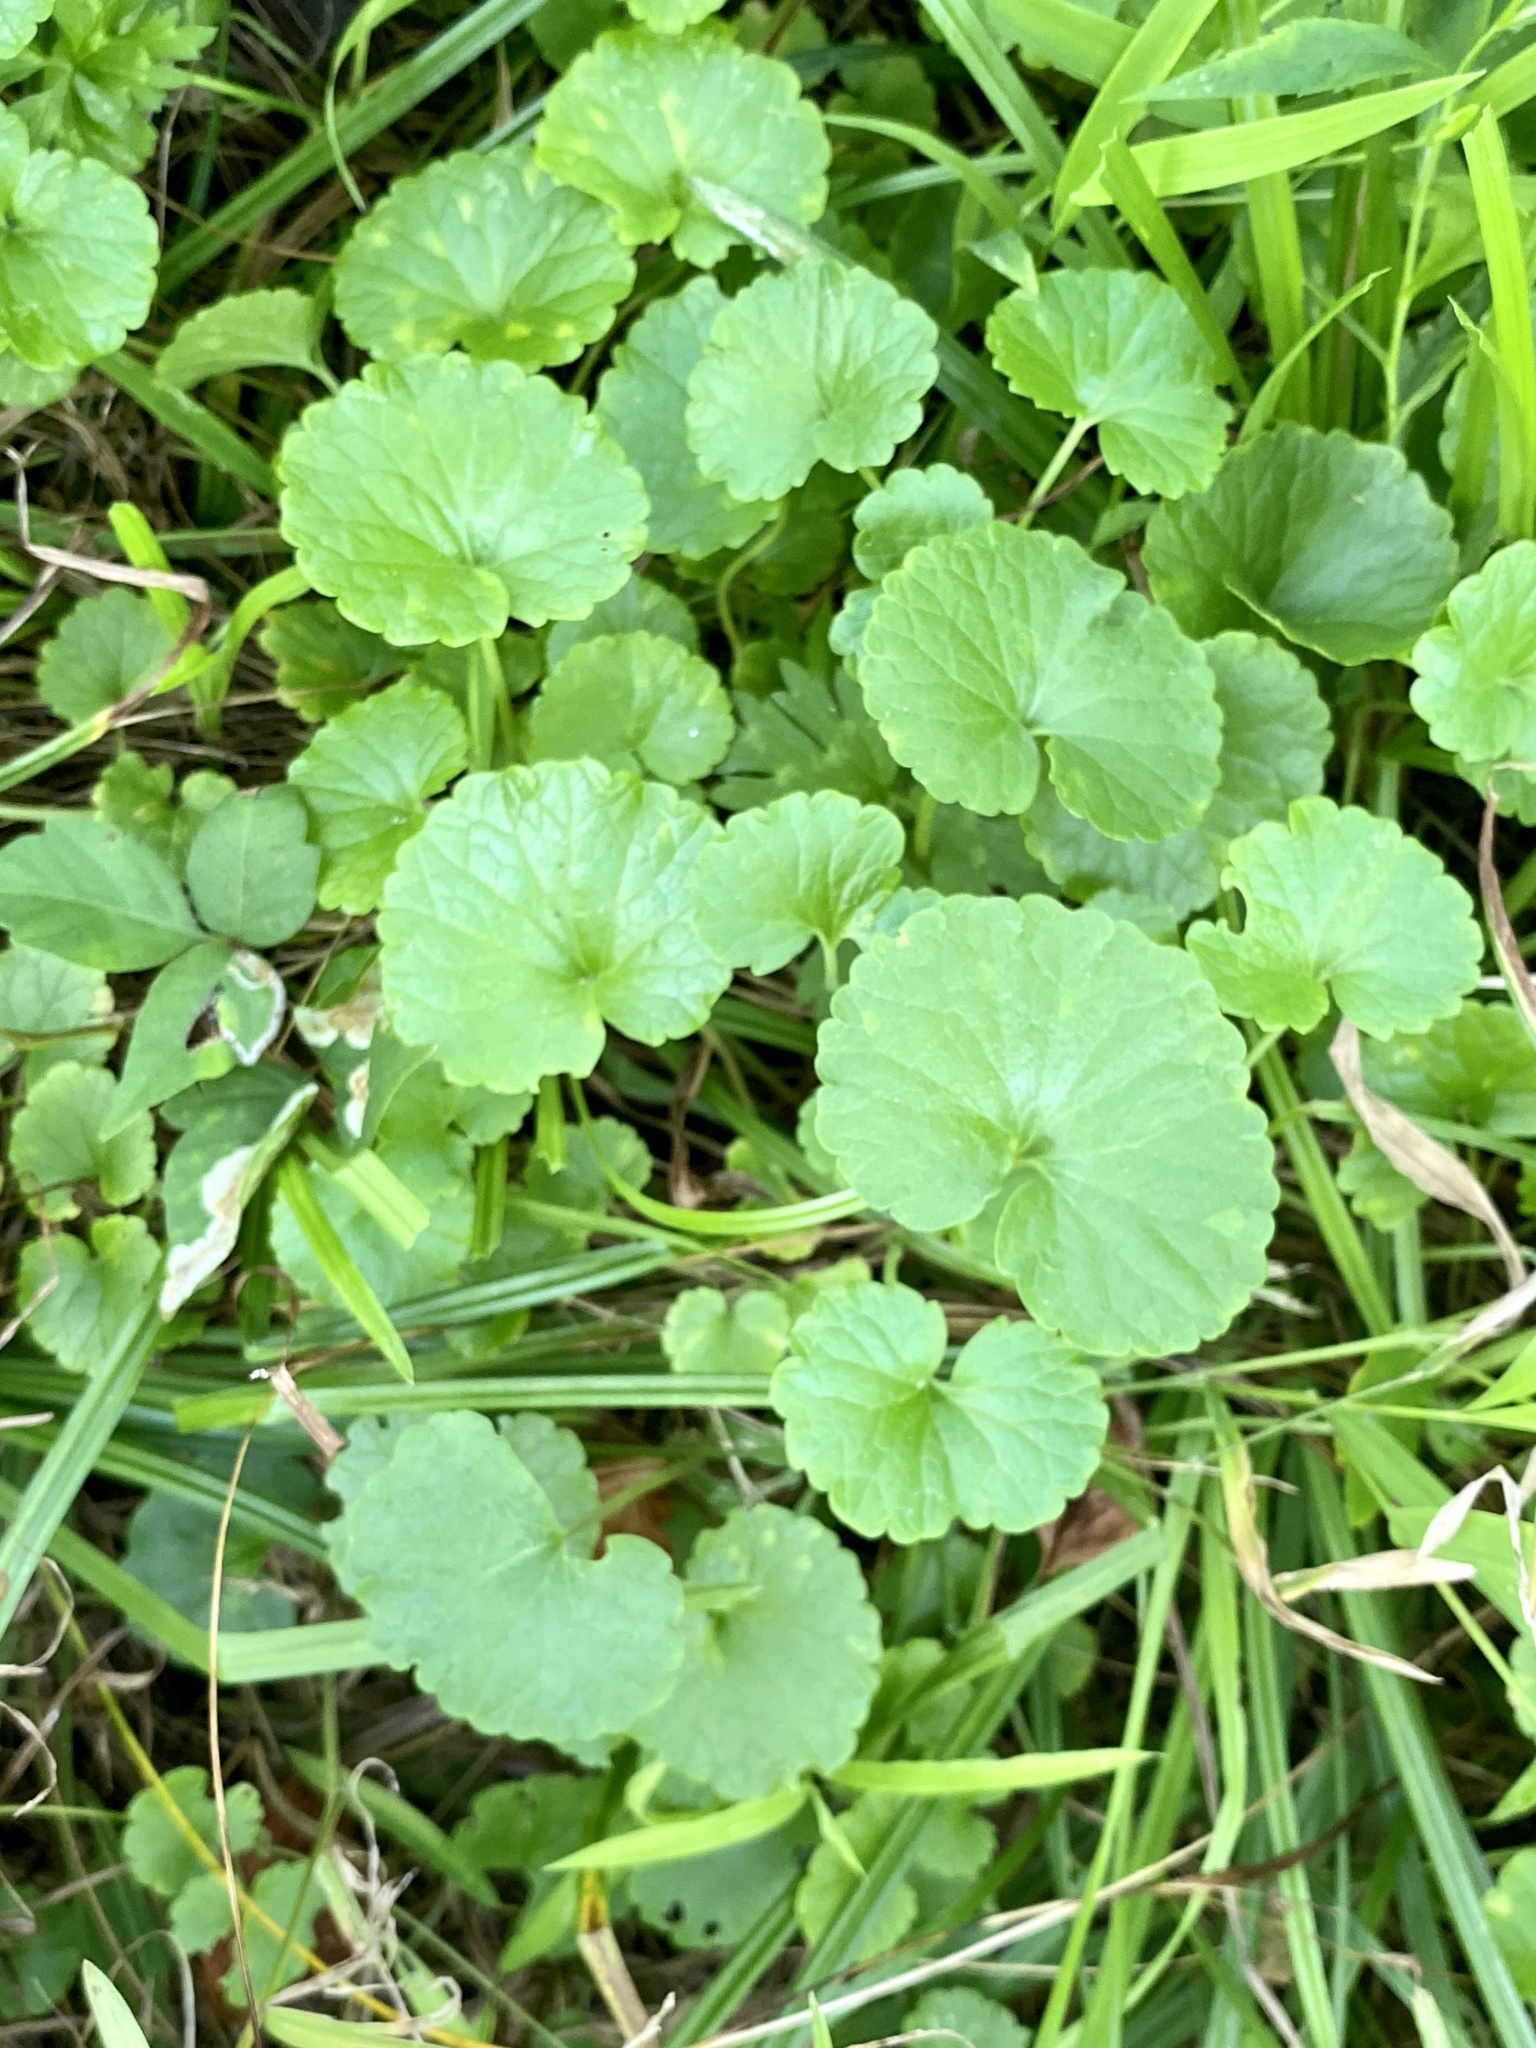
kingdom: Plantae
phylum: Tracheophyta
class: Magnoliopsida
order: Lamiales
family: Lamiaceae
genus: Glechoma
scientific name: Glechoma hederacea
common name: Ground ivy
